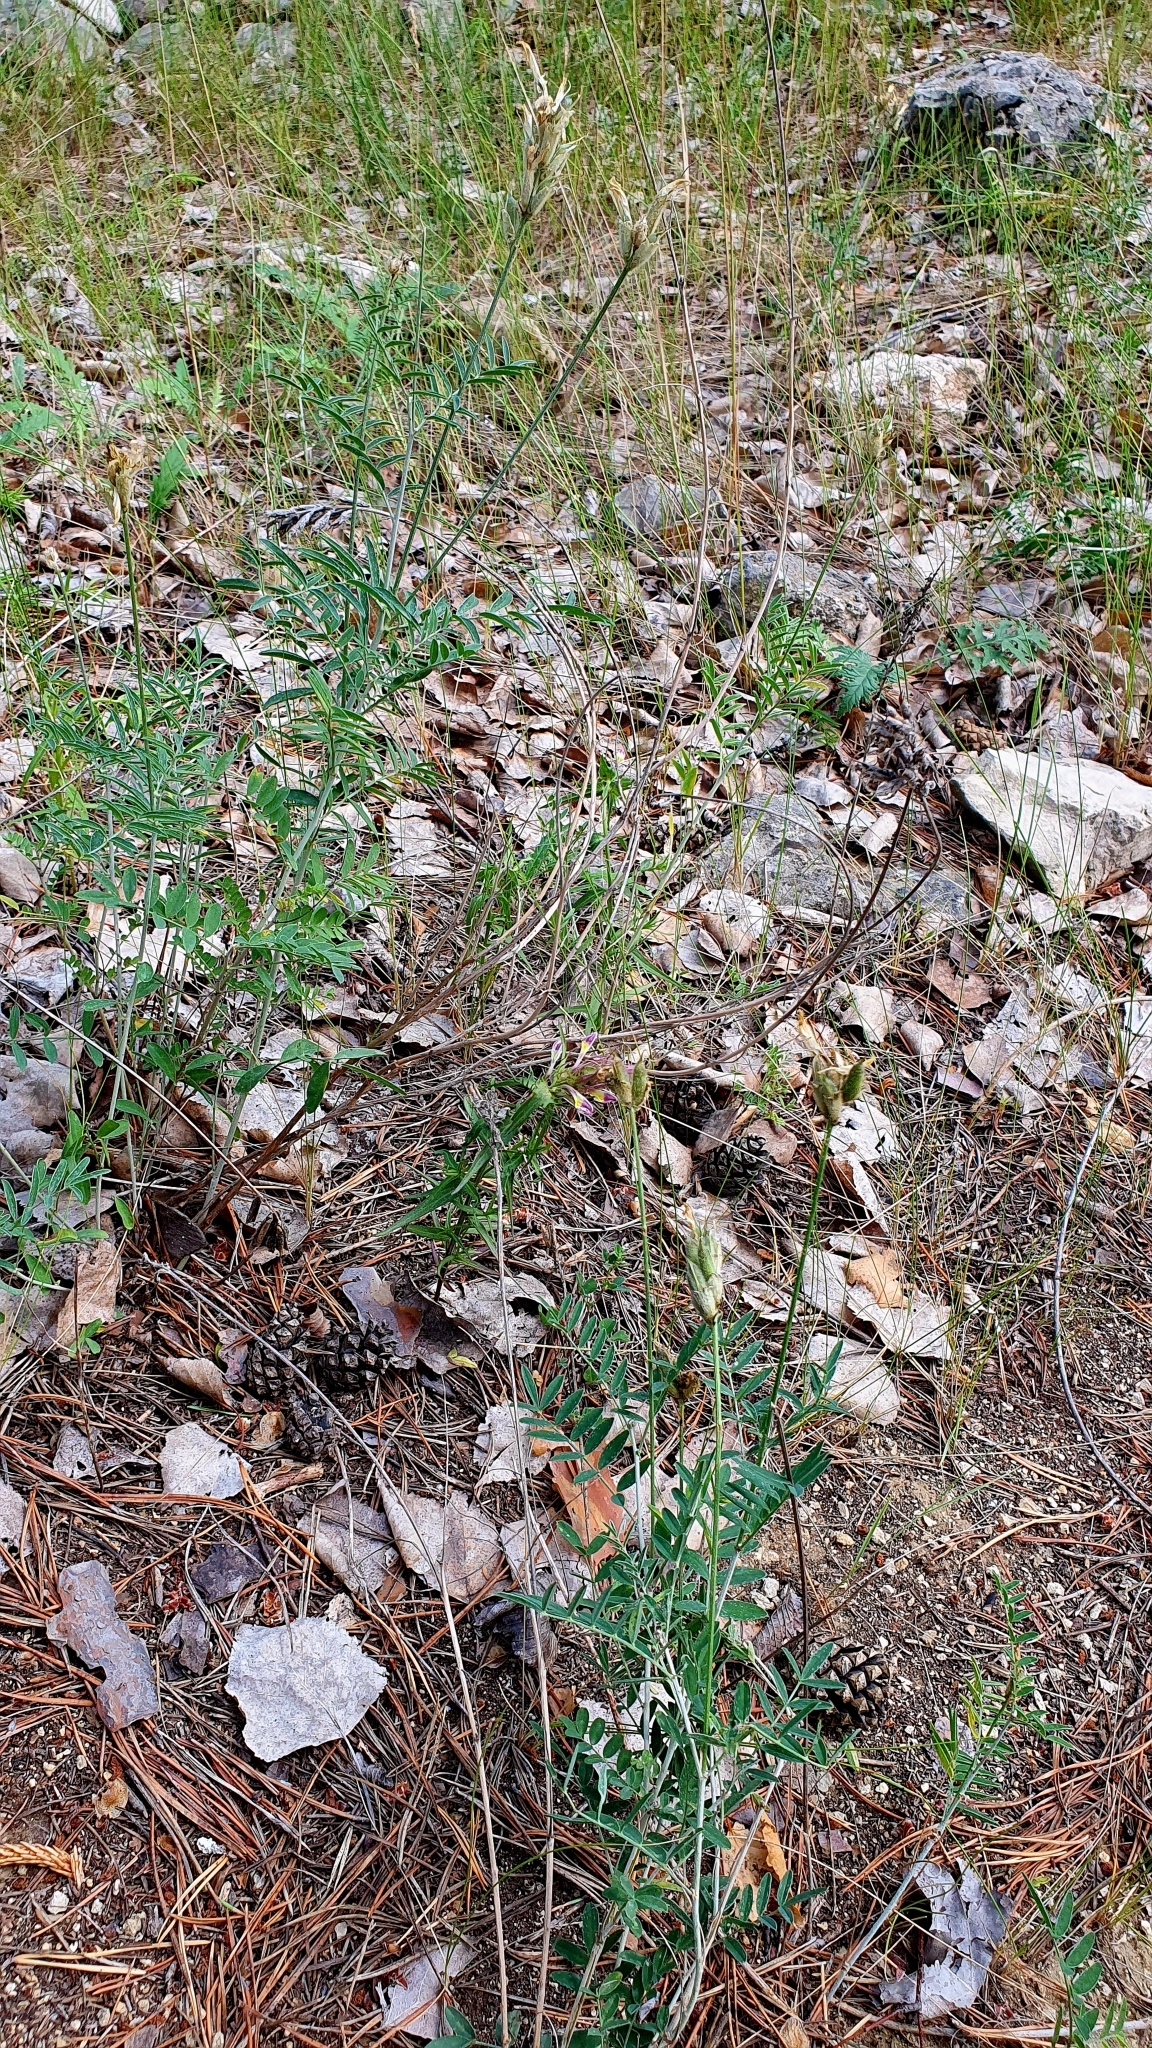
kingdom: Plantae
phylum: Tracheophyta
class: Magnoliopsida
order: Fabales
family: Fabaceae
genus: Astragalus
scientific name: Astragalus zingeri
